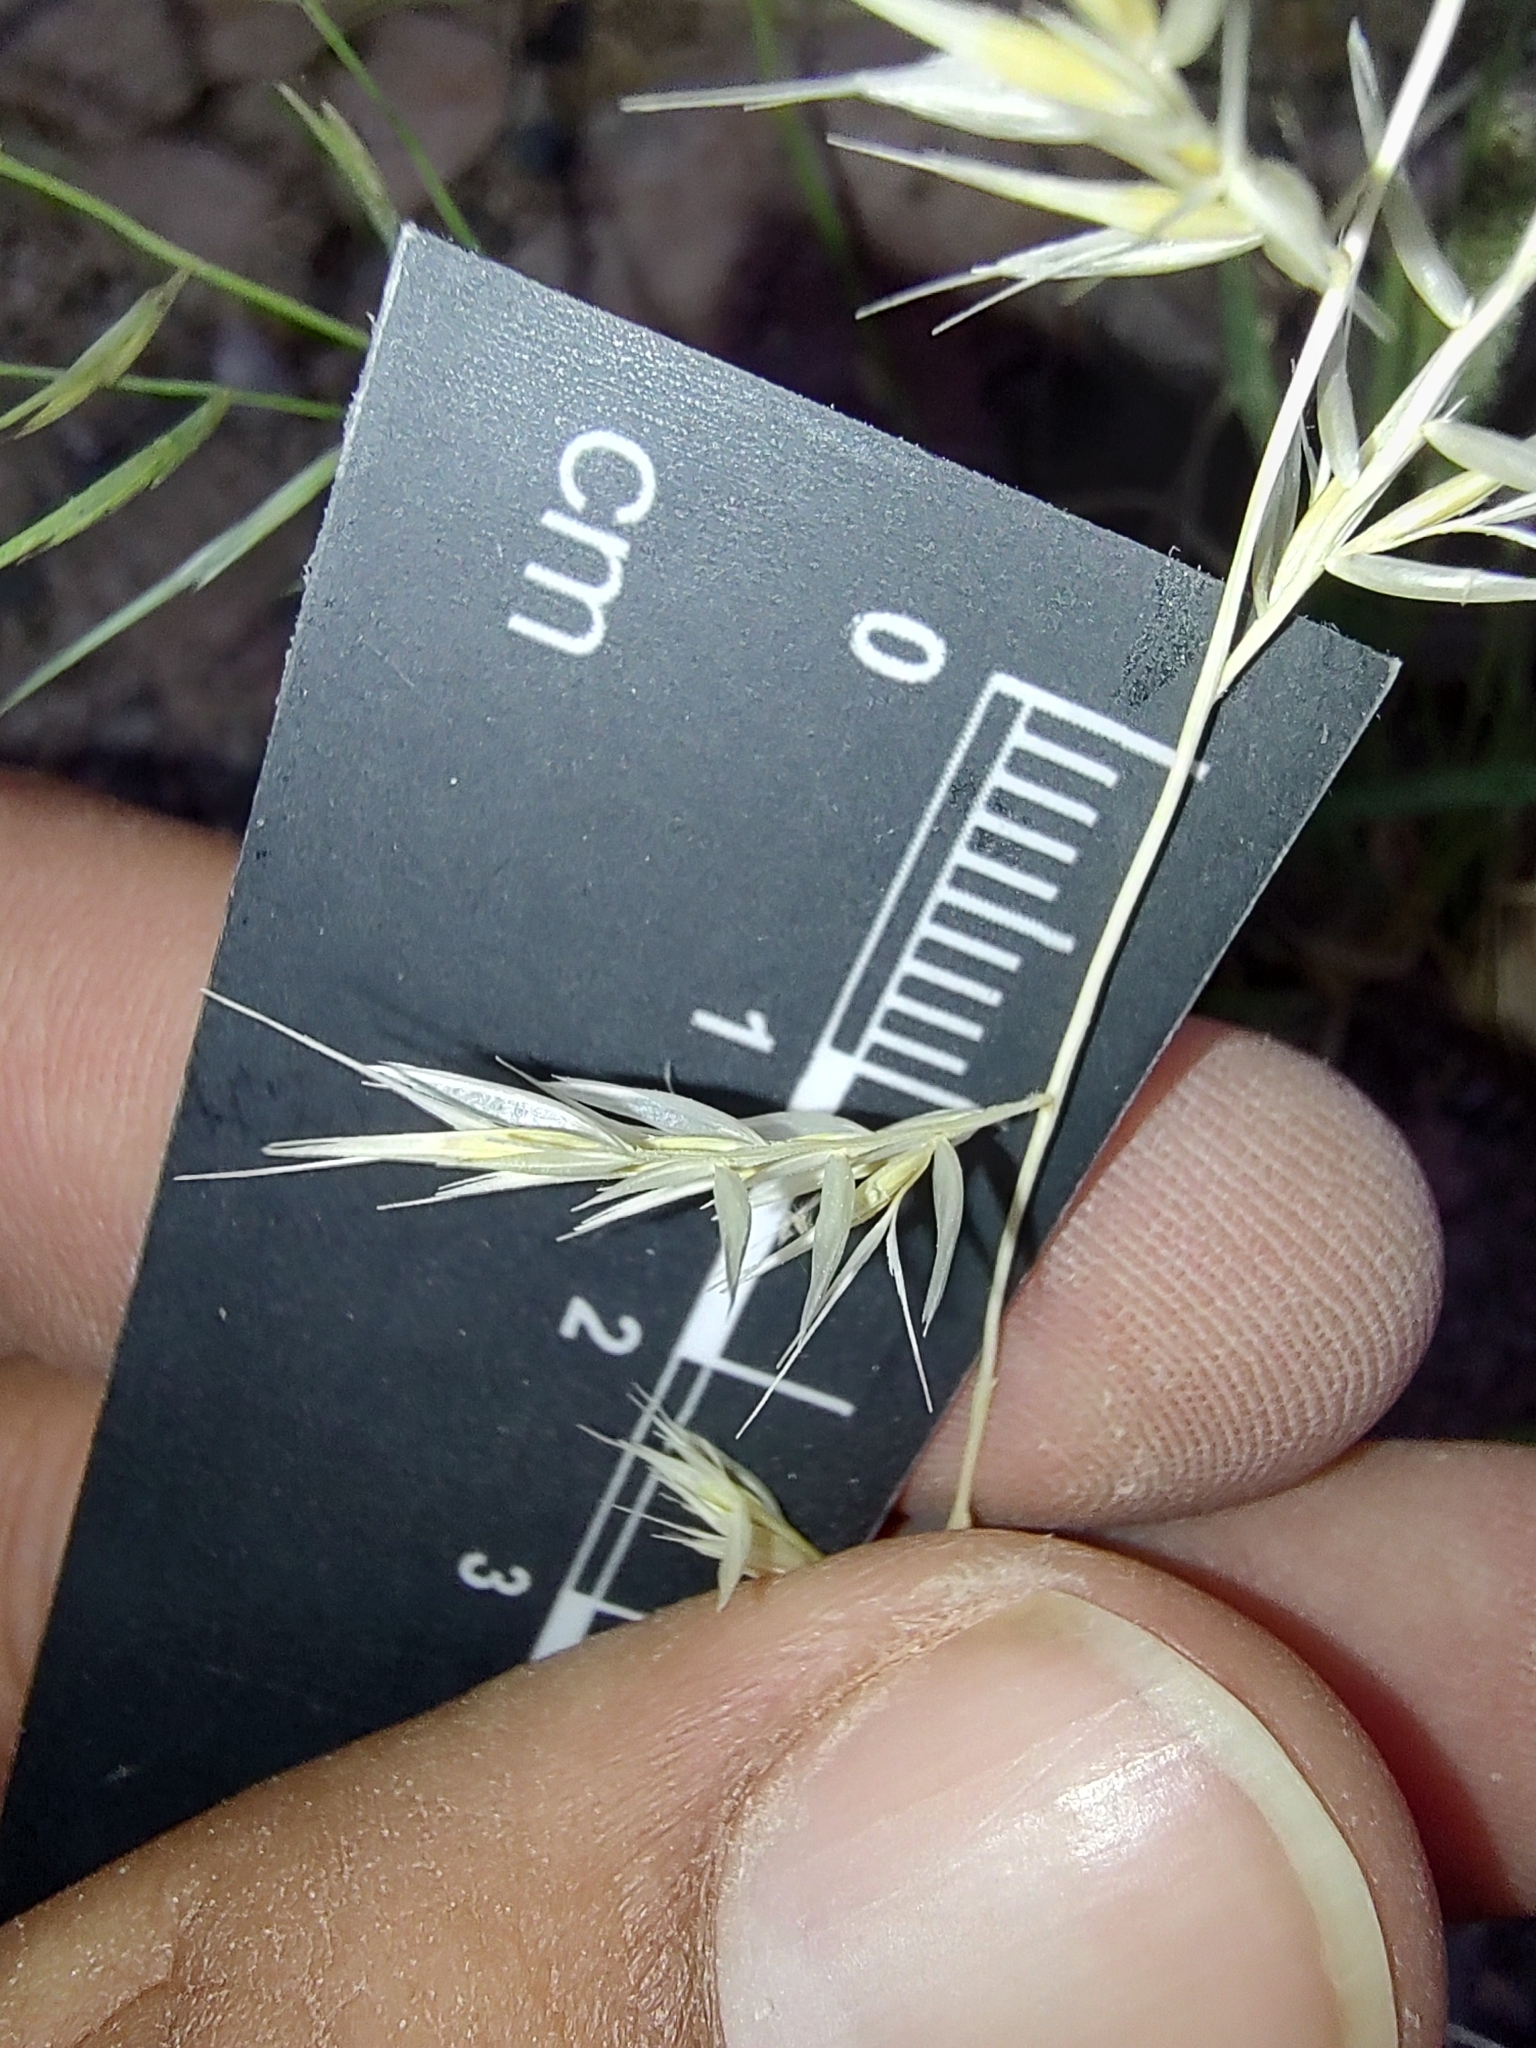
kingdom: Plantae
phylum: Tracheophyta
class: Liliopsida
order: Poales
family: Poaceae
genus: Bouteloua
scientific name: Bouteloua annua
